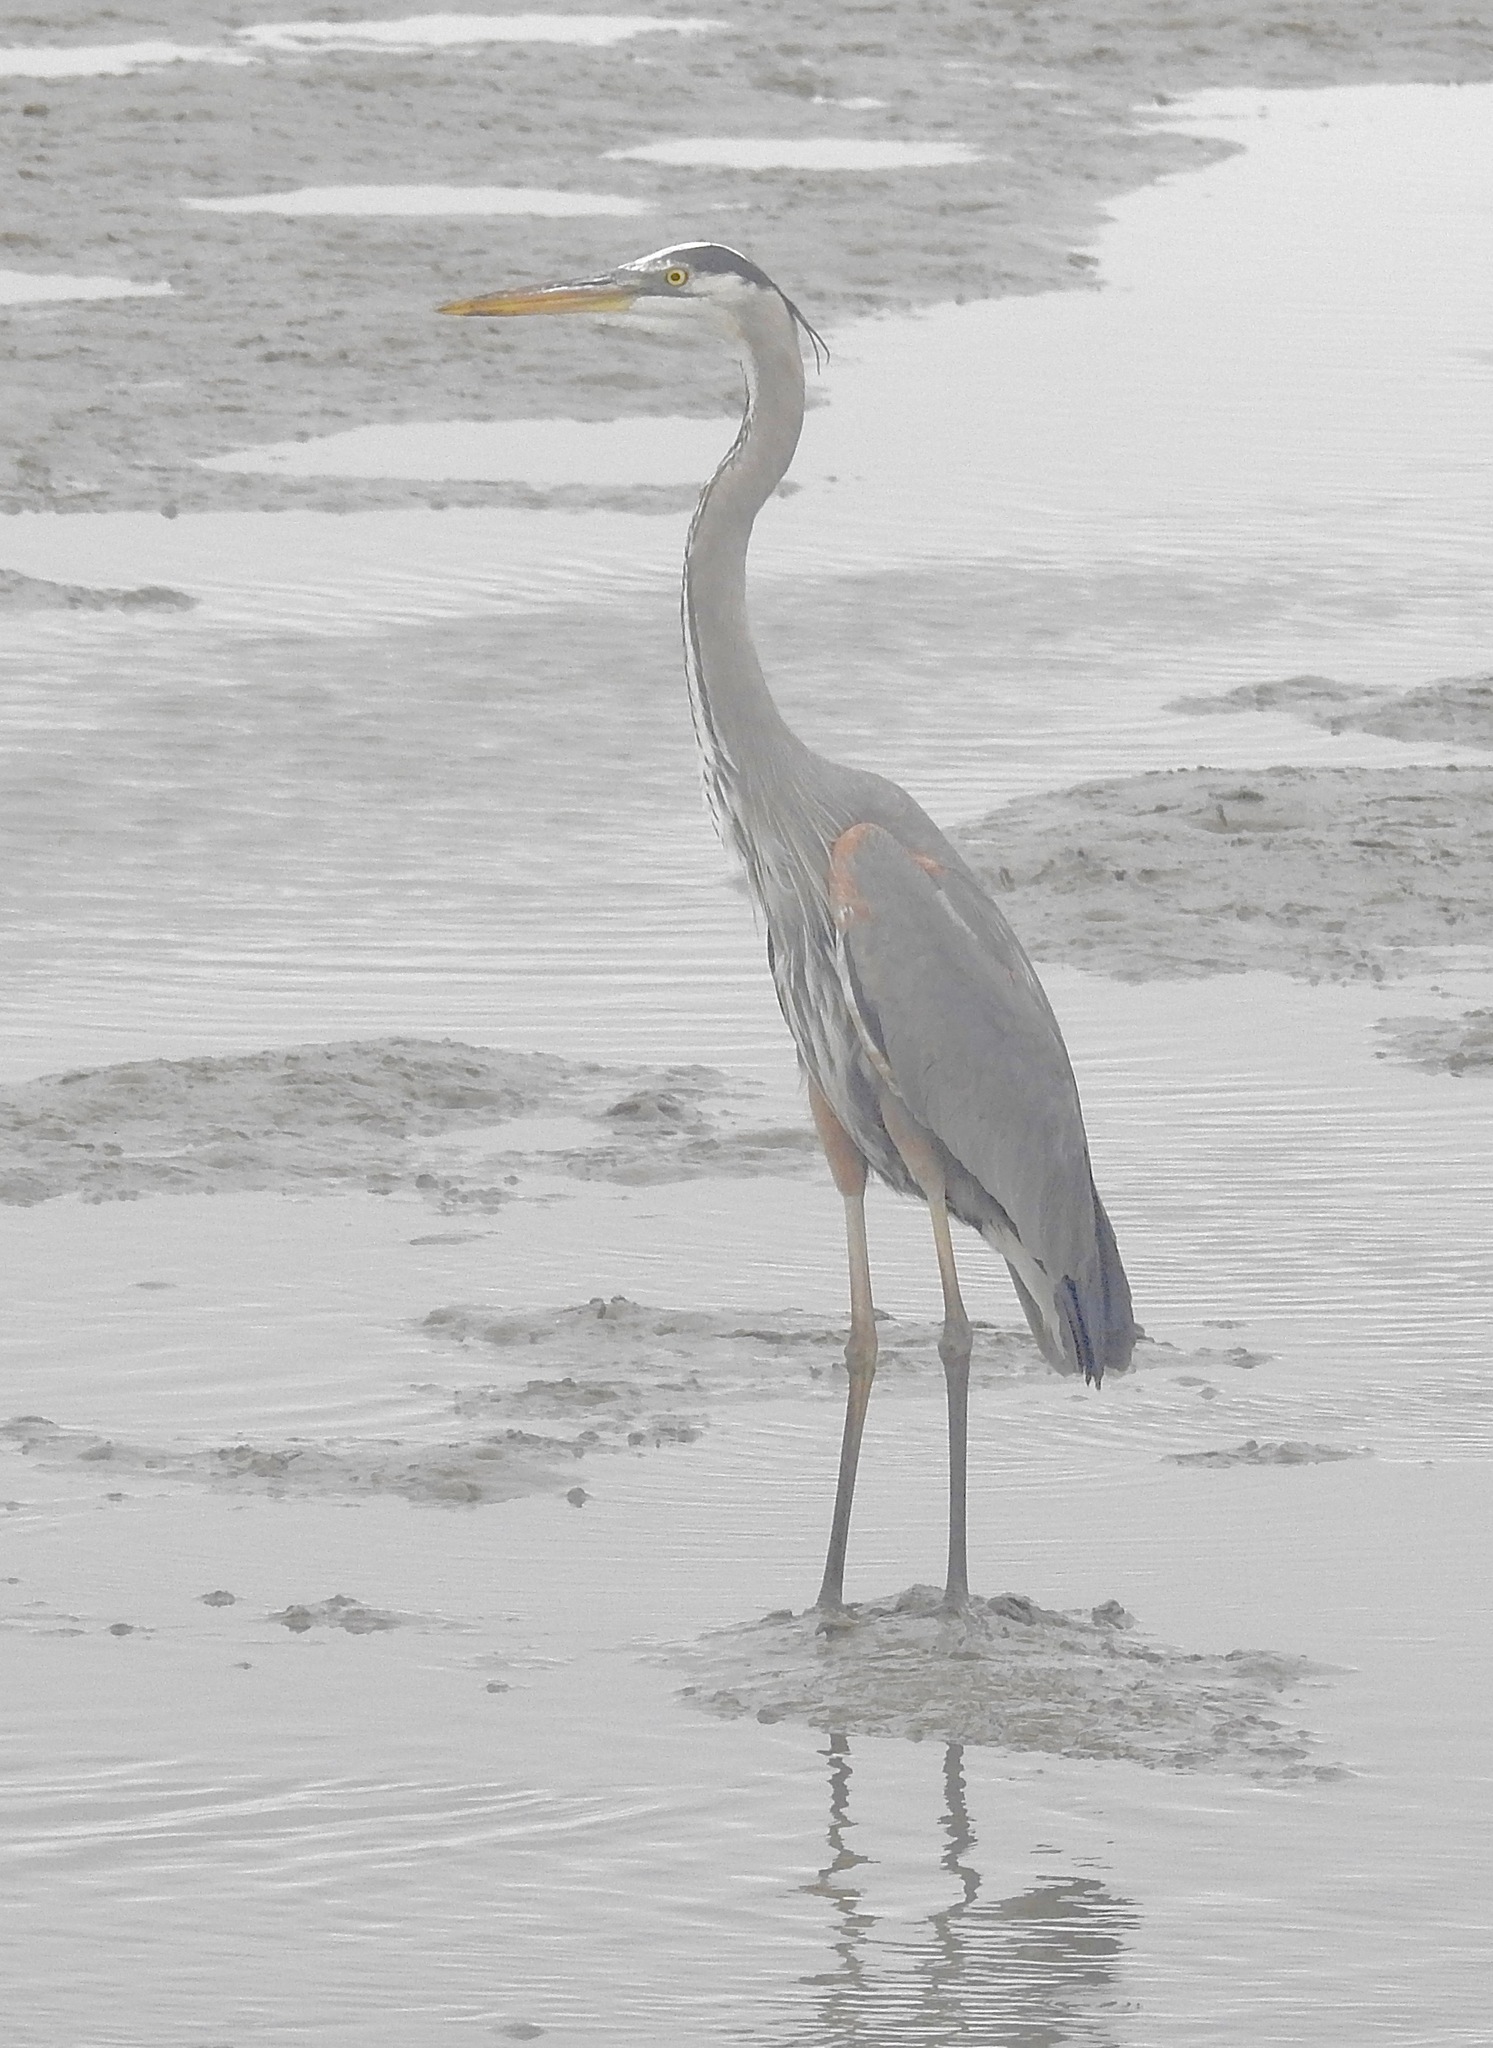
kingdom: Animalia
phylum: Chordata
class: Aves
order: Pelecaniformes
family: Ardeidae
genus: Ardea
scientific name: Ardea herodias
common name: Great blue heron
